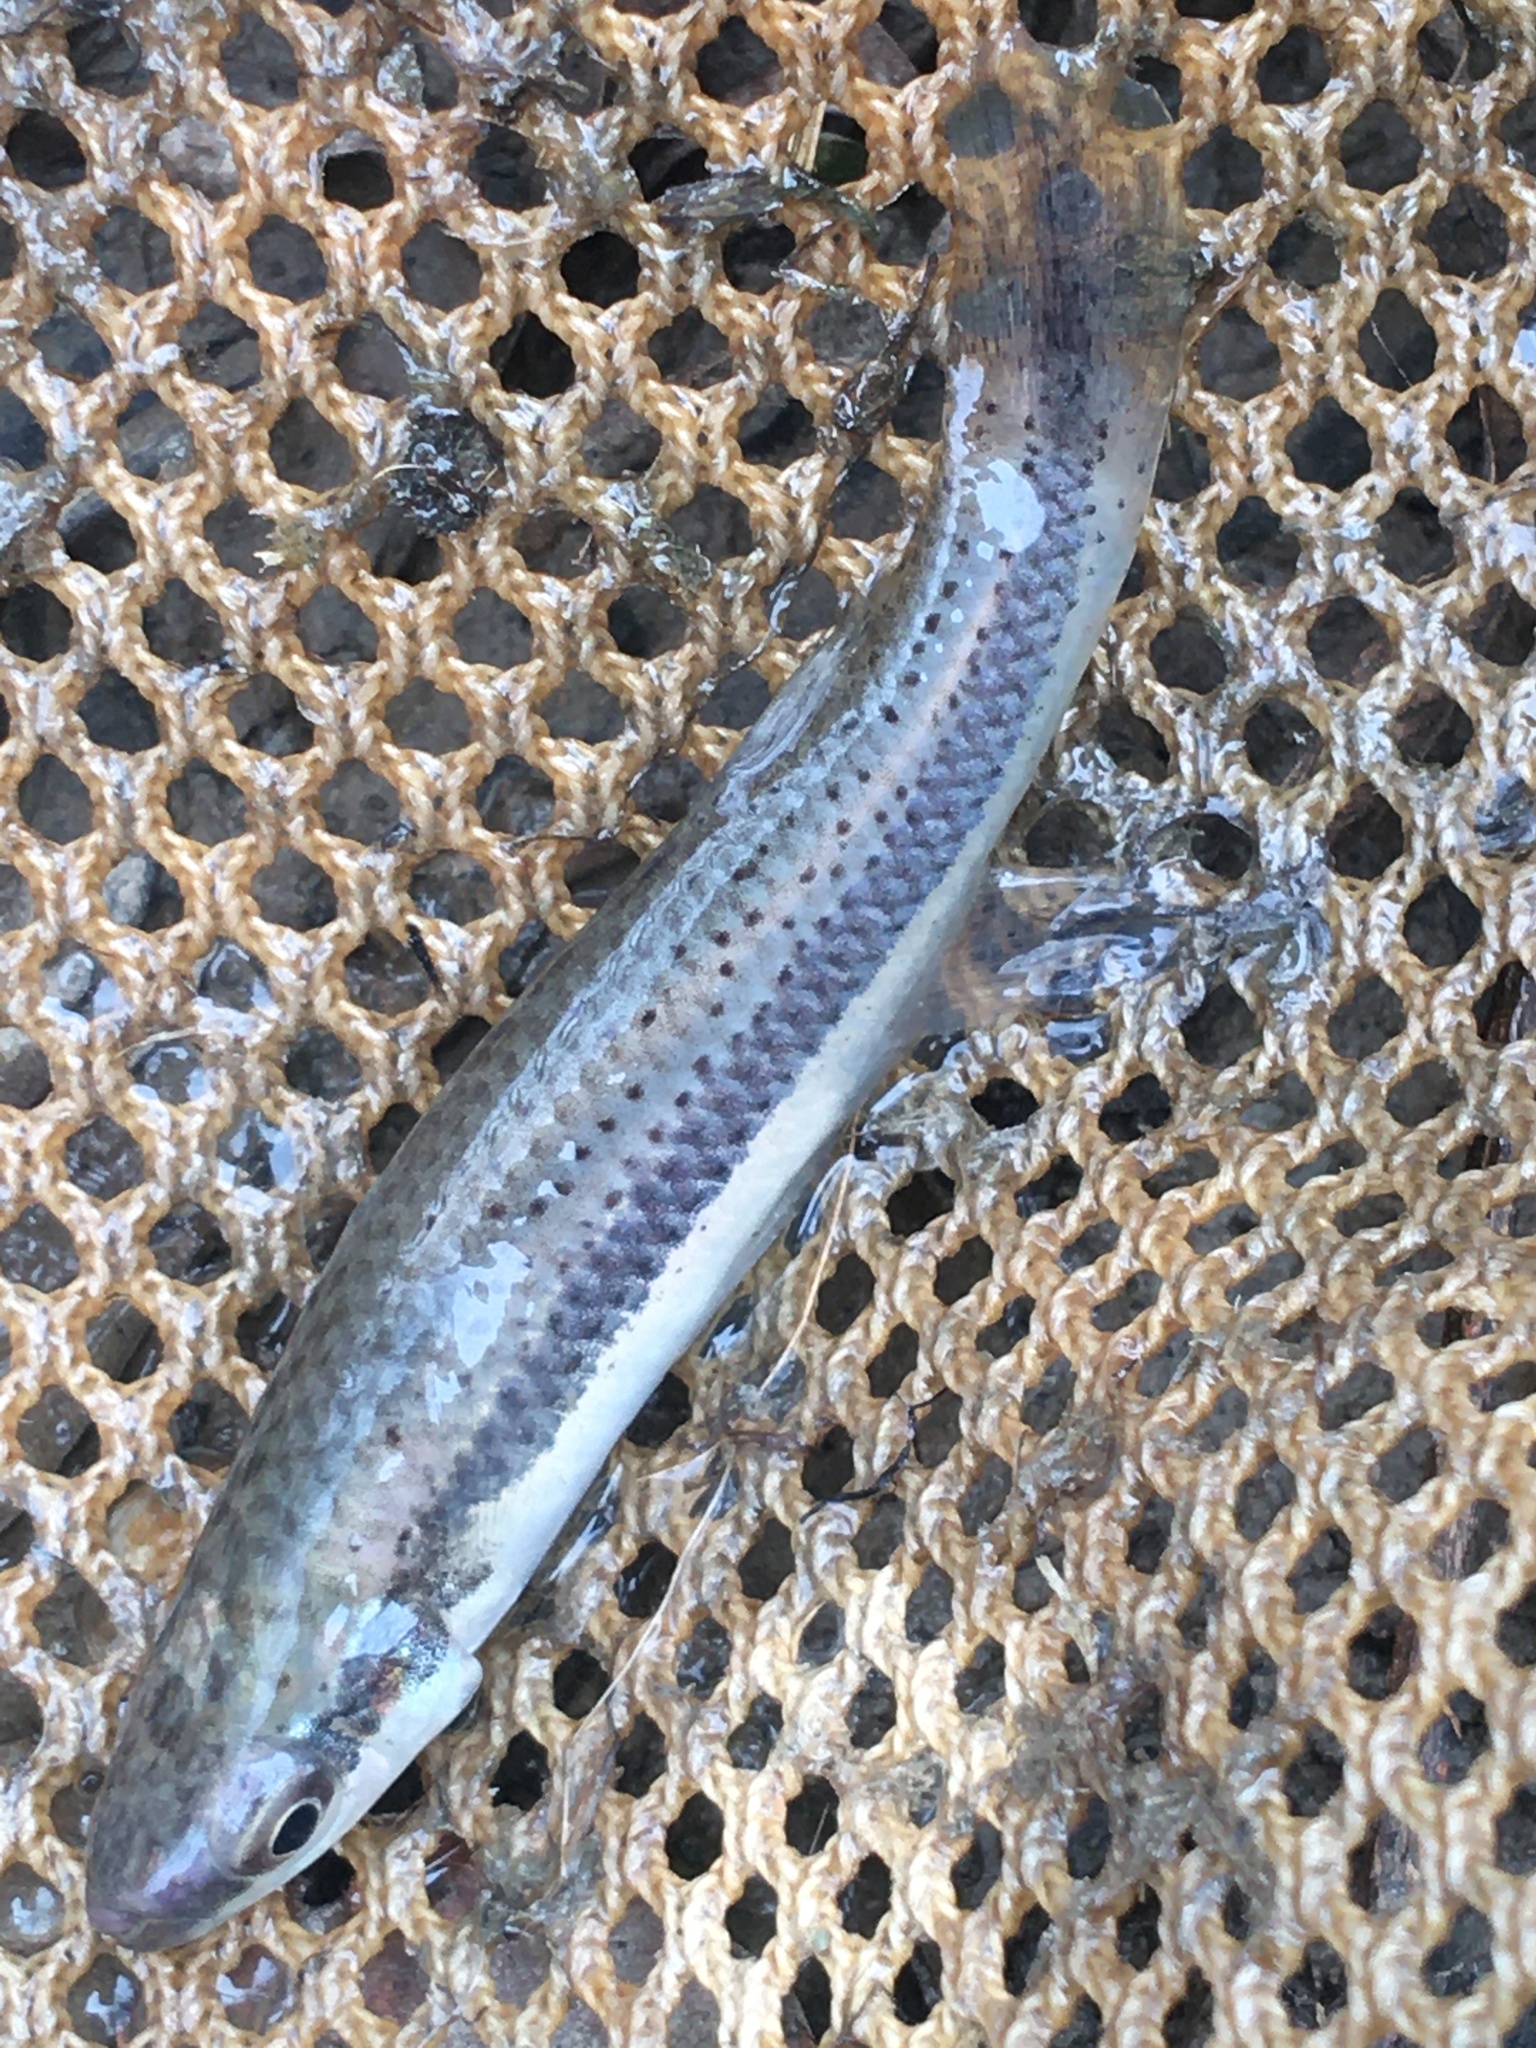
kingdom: Animalia
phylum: Chordata
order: Cyprinodontiformes
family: Fundulidae
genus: Fundulus
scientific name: Fundulus olivaceus
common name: Blackspotted topminnow
